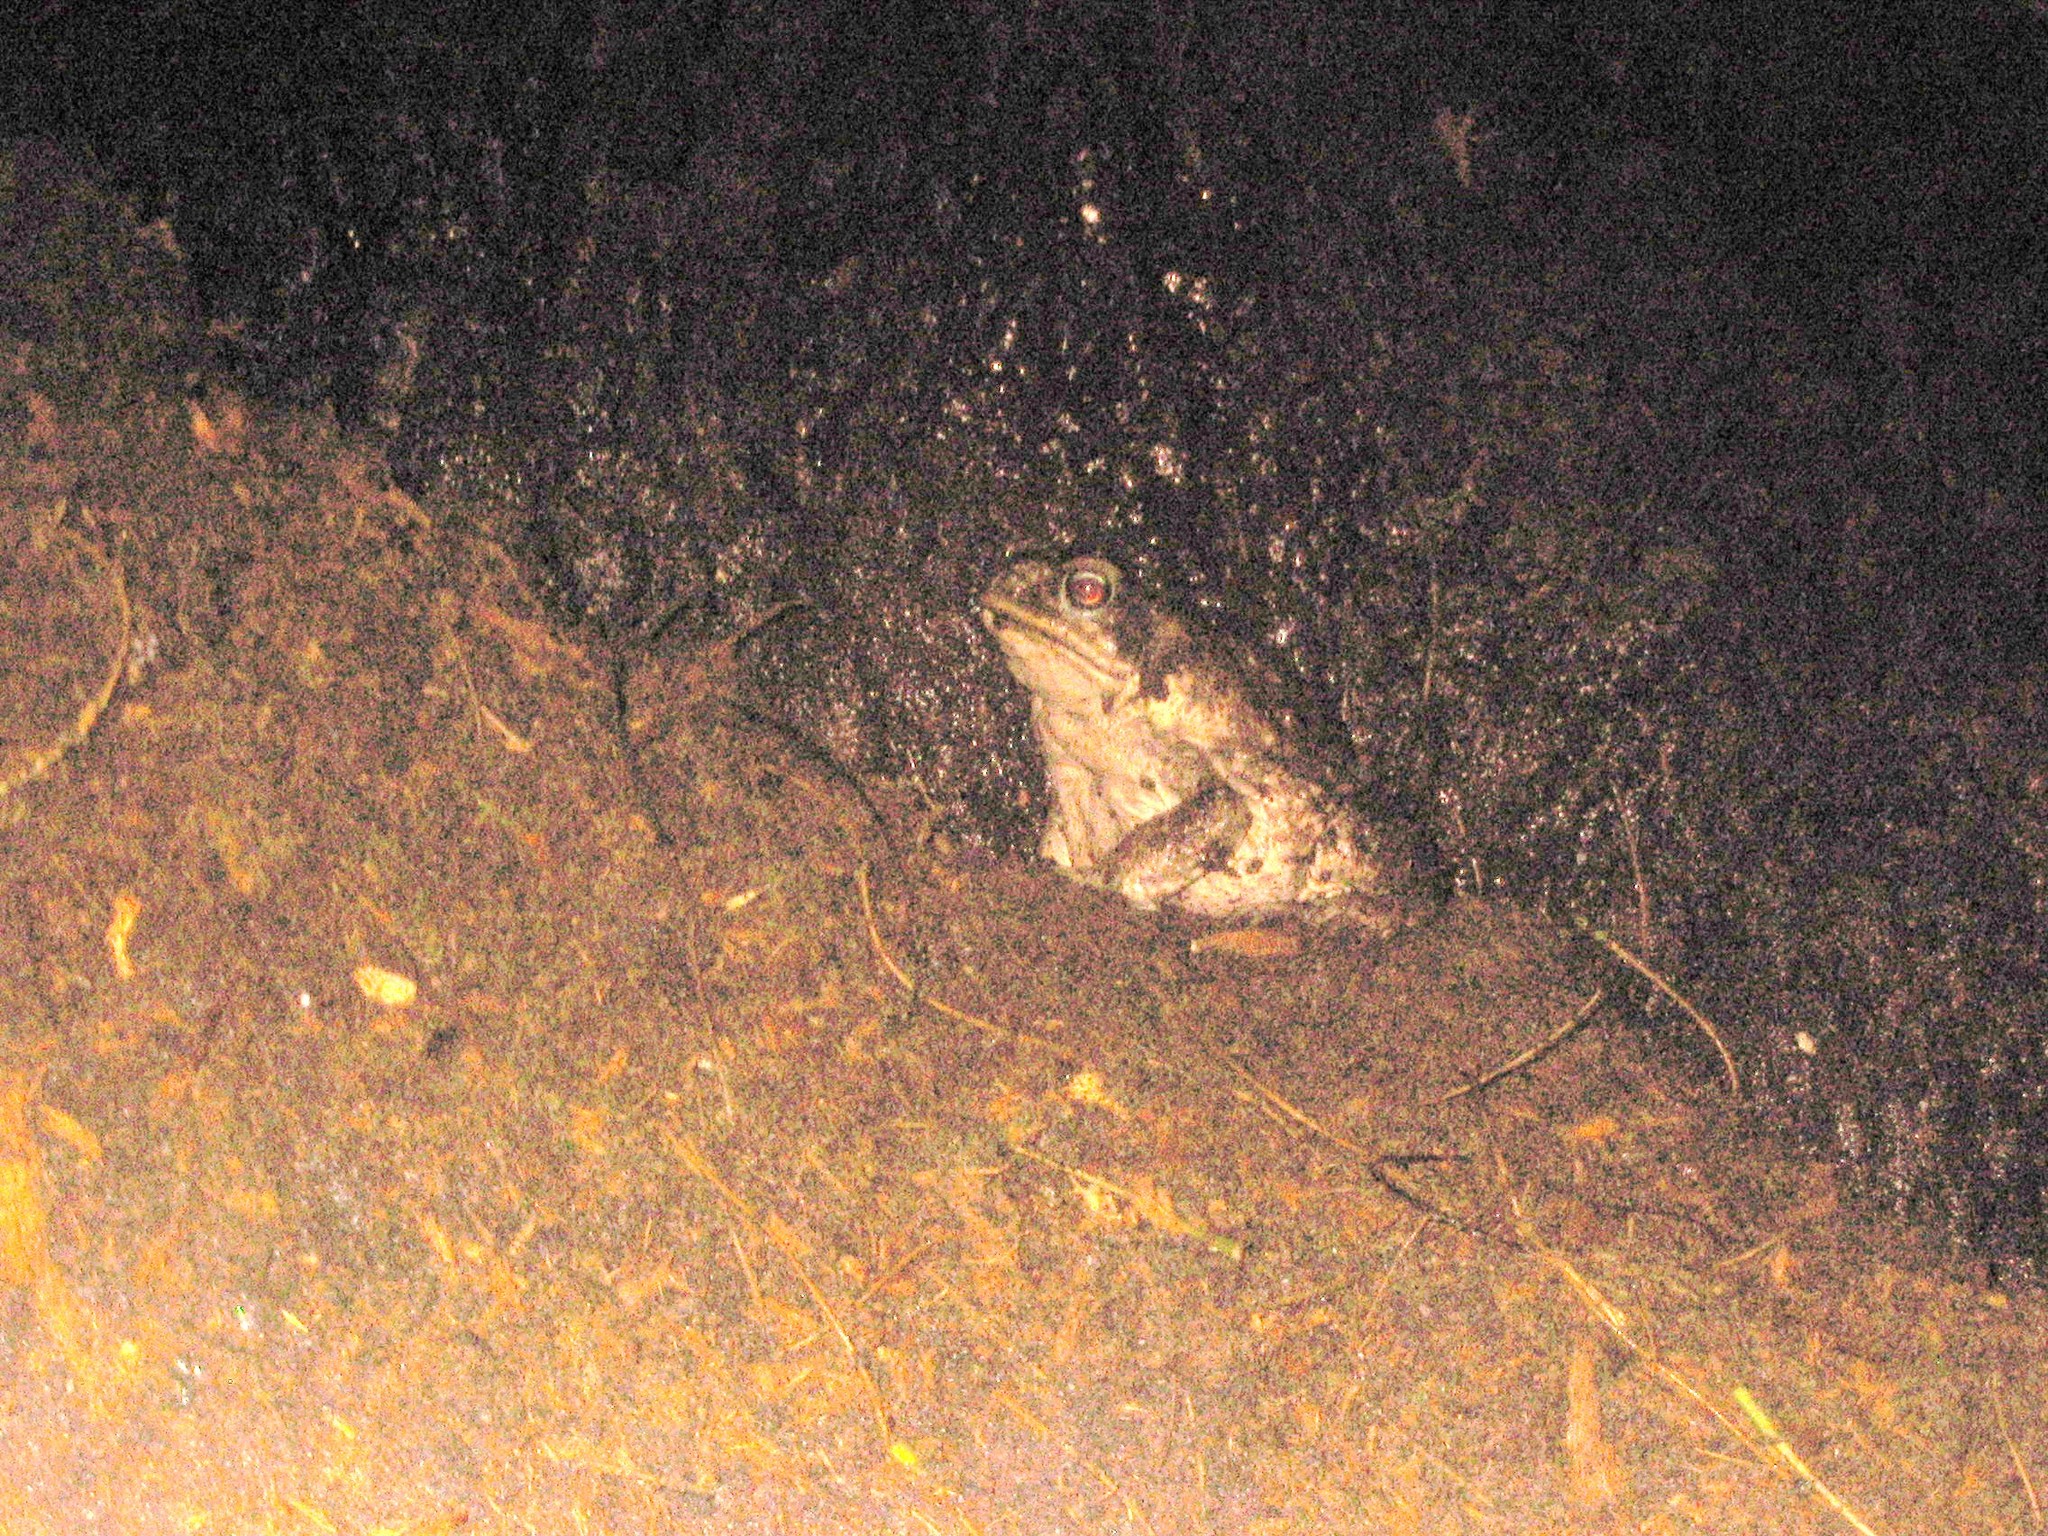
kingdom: Animalia
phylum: Chordata
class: Amphibia
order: Anura
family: Bufonidae
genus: Rhinella
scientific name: Rhinella horribilis
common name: Mesoamerican cane toad
